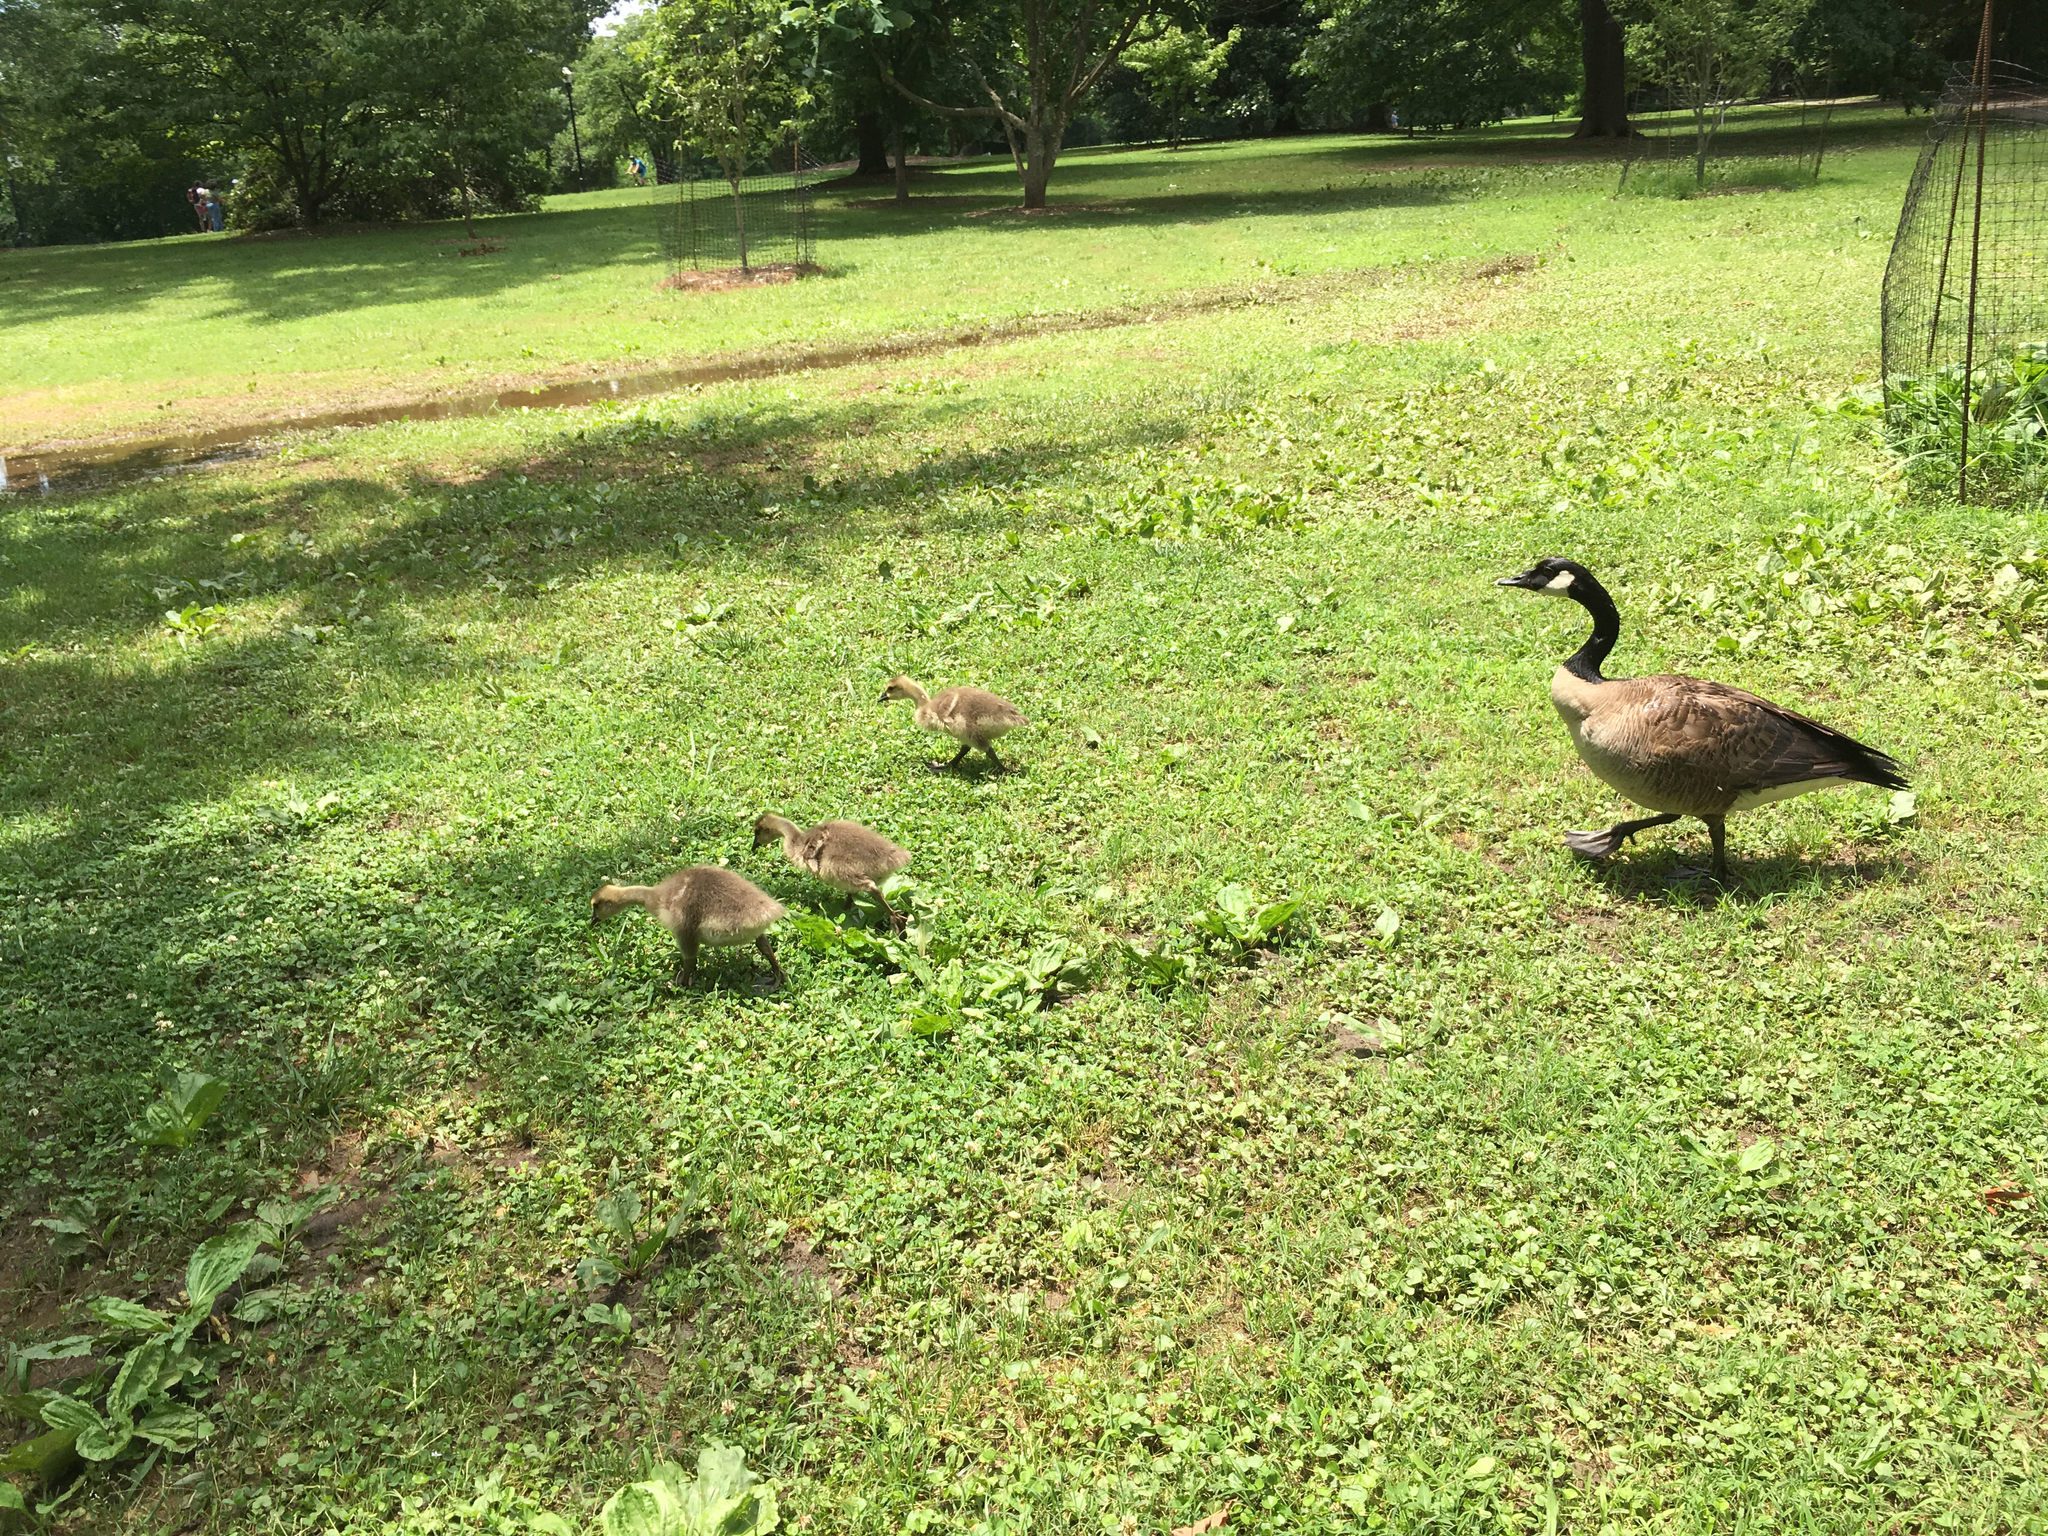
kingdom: Animalia
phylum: Chordata
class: Aves
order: Anseriformes
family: Anatidae
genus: Branta
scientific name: Branta canadensis
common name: Canada goose
